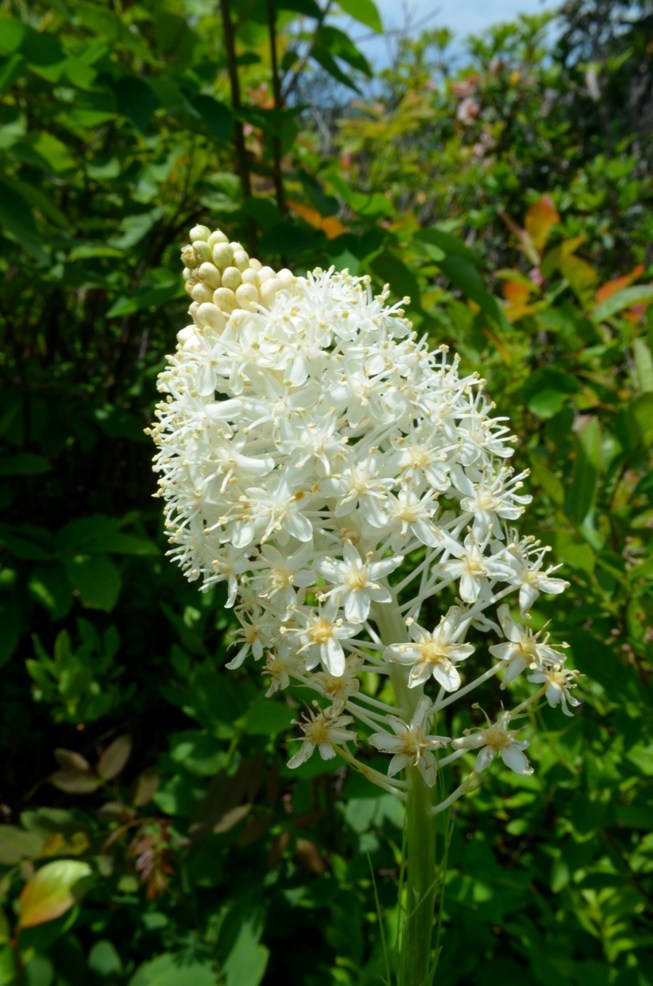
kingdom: Plantae
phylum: Tracheophyta
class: Liliopsida
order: Liliales
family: Melanthiaceae
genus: Xerophyllum
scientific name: Xerophyllum asphodeloides
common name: Mountain-asphodel
